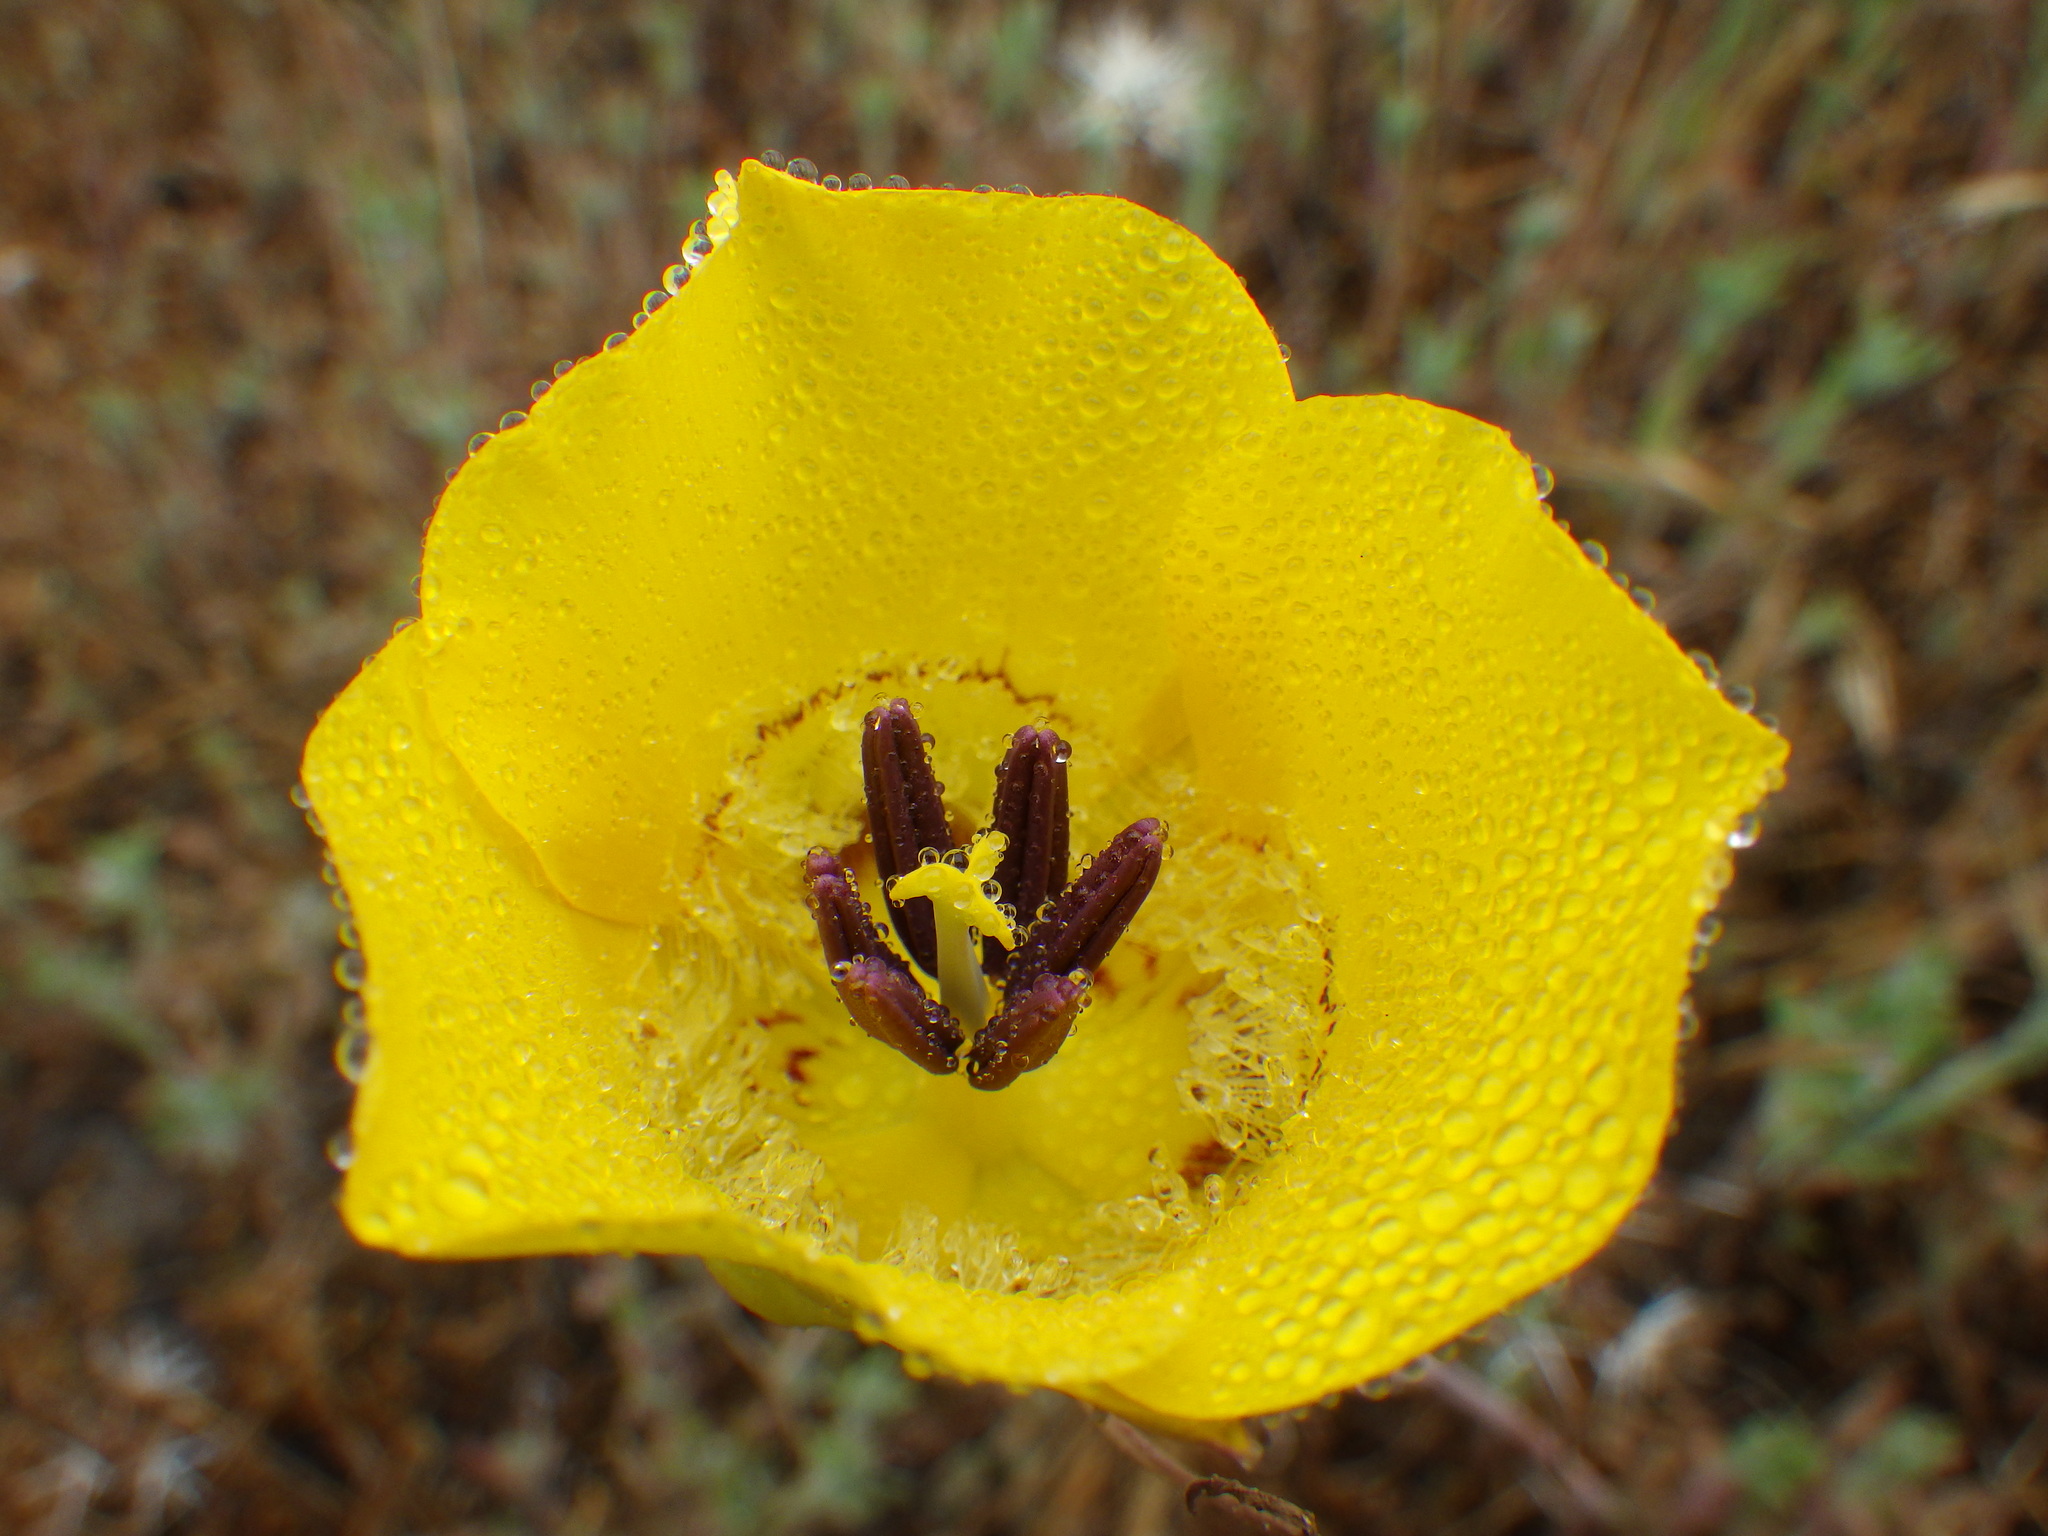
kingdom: Plantae
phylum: Tracheophyta
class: Liliopsida
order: Liliales
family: Liliaceae
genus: Calochortus
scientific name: Calochortus clavatus
